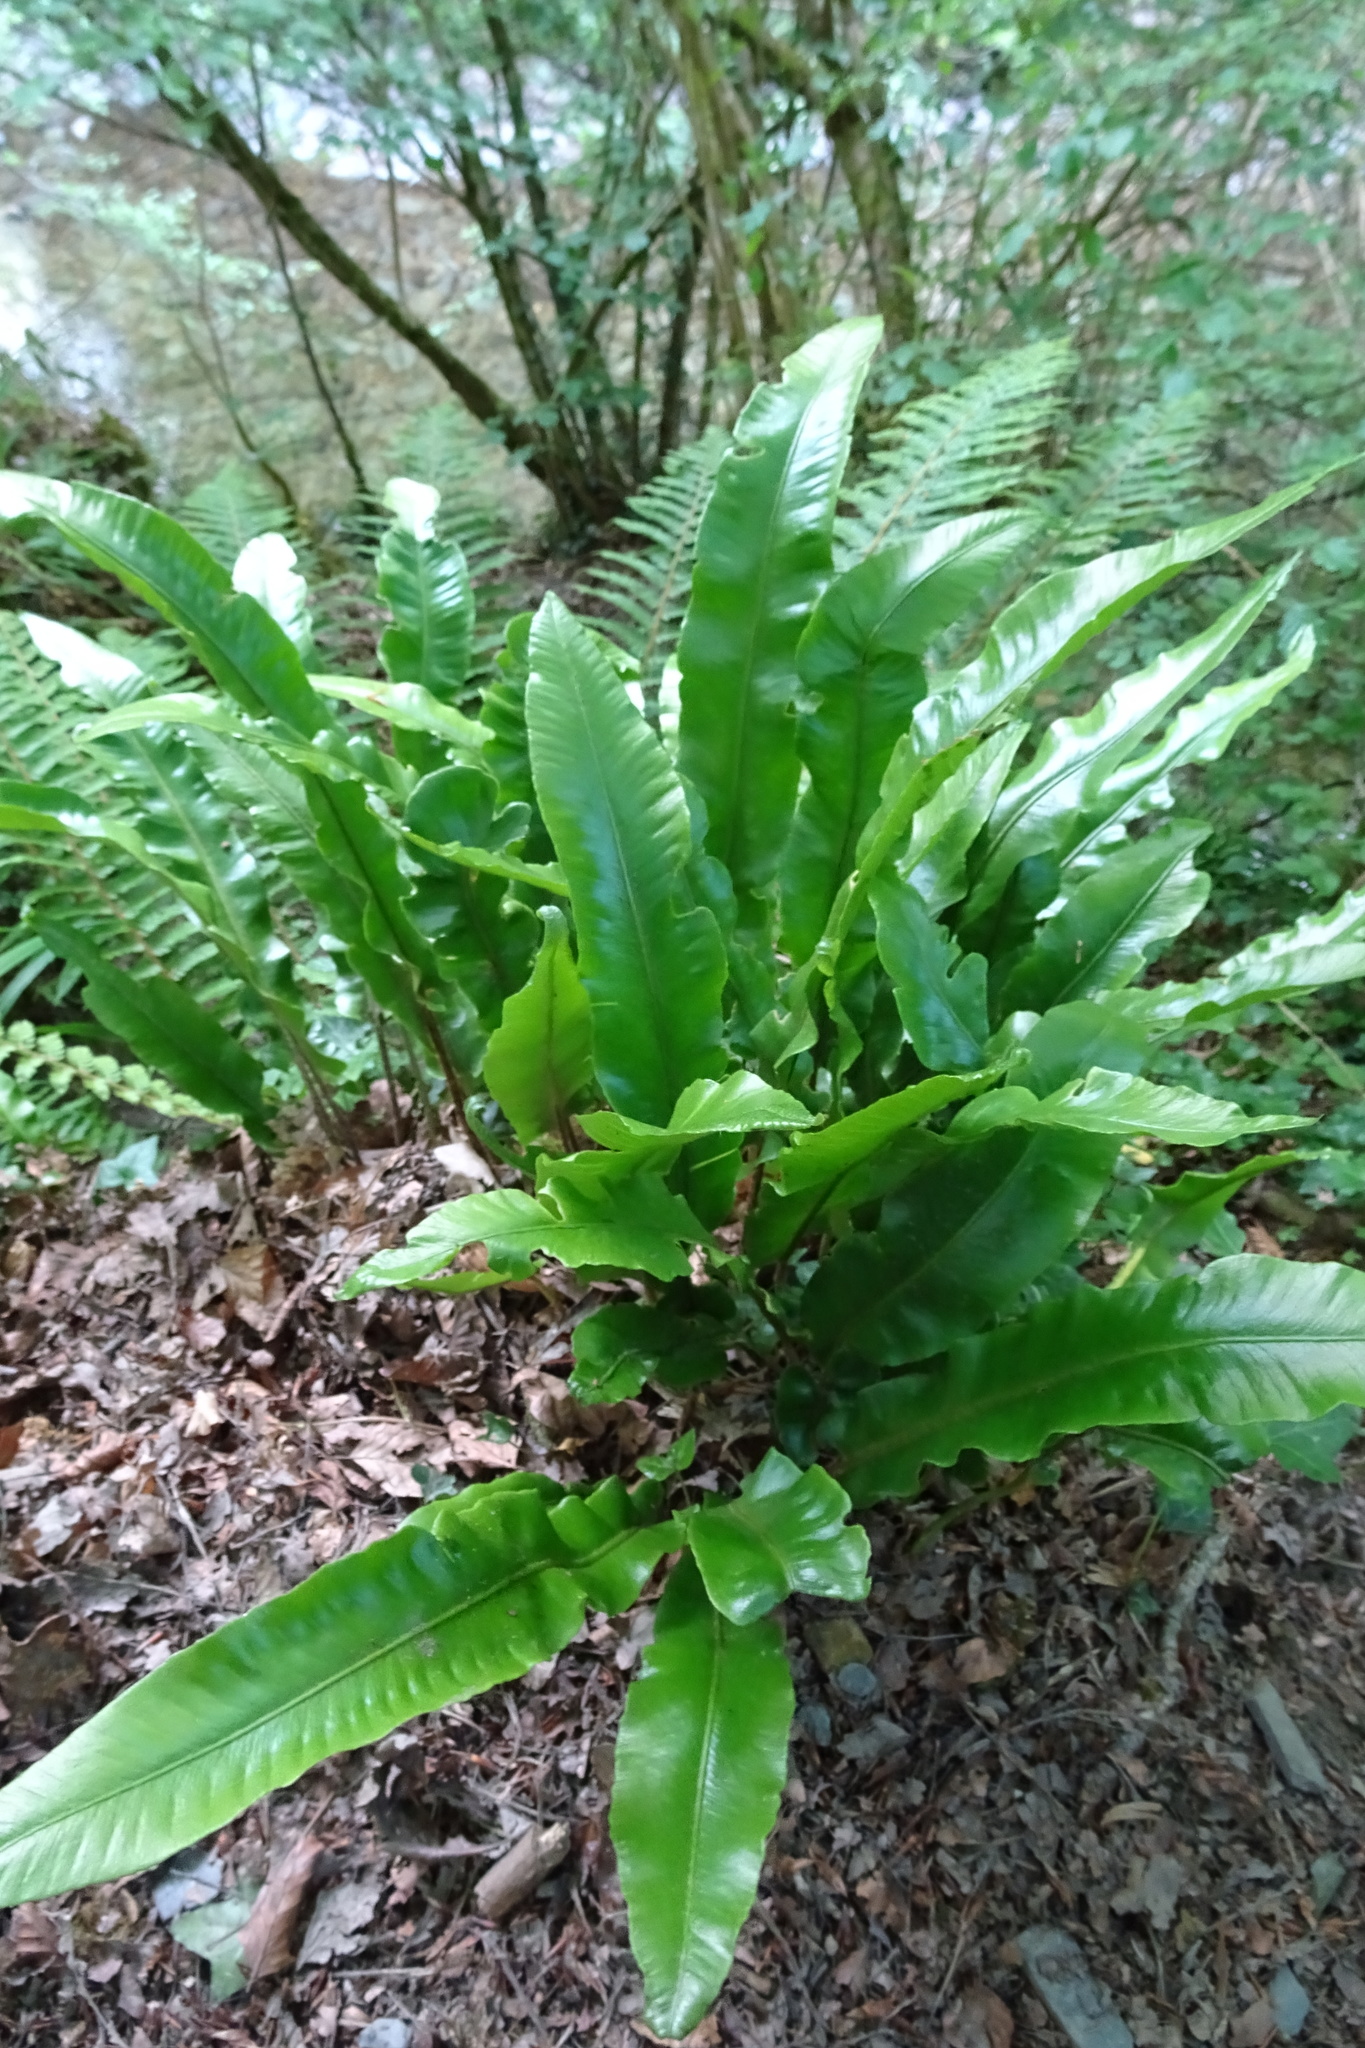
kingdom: Plantae
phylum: Tracheophyta
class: Polypodiopsida
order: Polypodiales
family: Aspleniaceae
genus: Asplenium
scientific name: Asplenium scolopendrium
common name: Hart's-tongue fern
